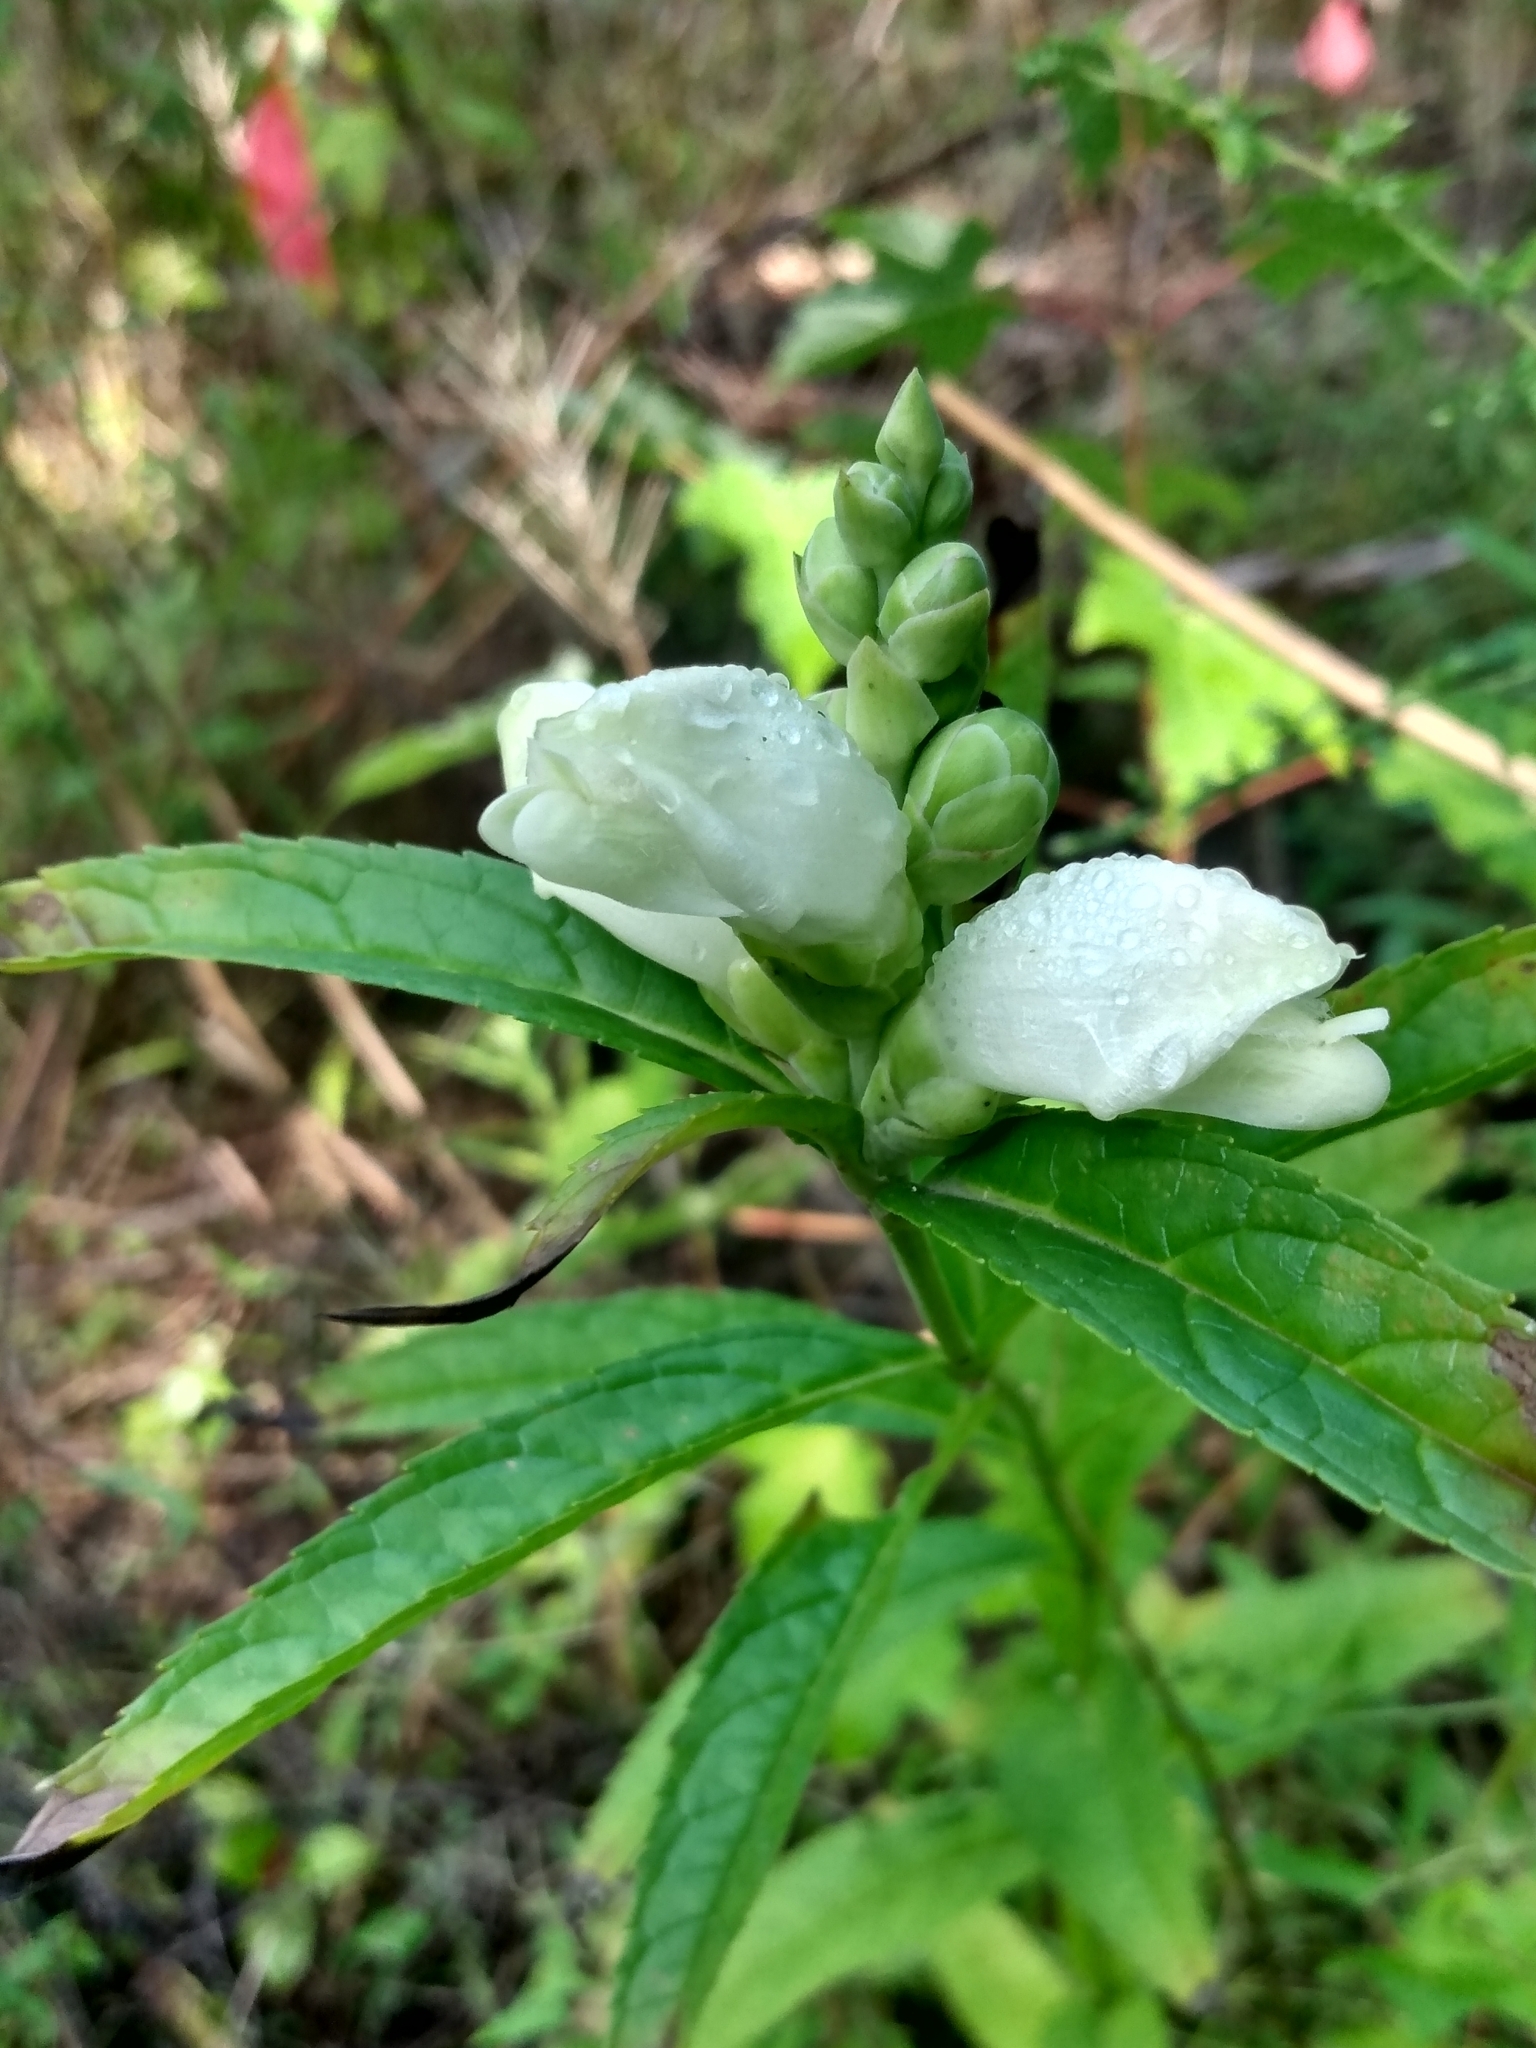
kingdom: Plantae
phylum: Tracheophyta
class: Magnoliopsida
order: Lamiales
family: Plantaginaceae
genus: Chelone
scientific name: Chelone glabra
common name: Snakehead
